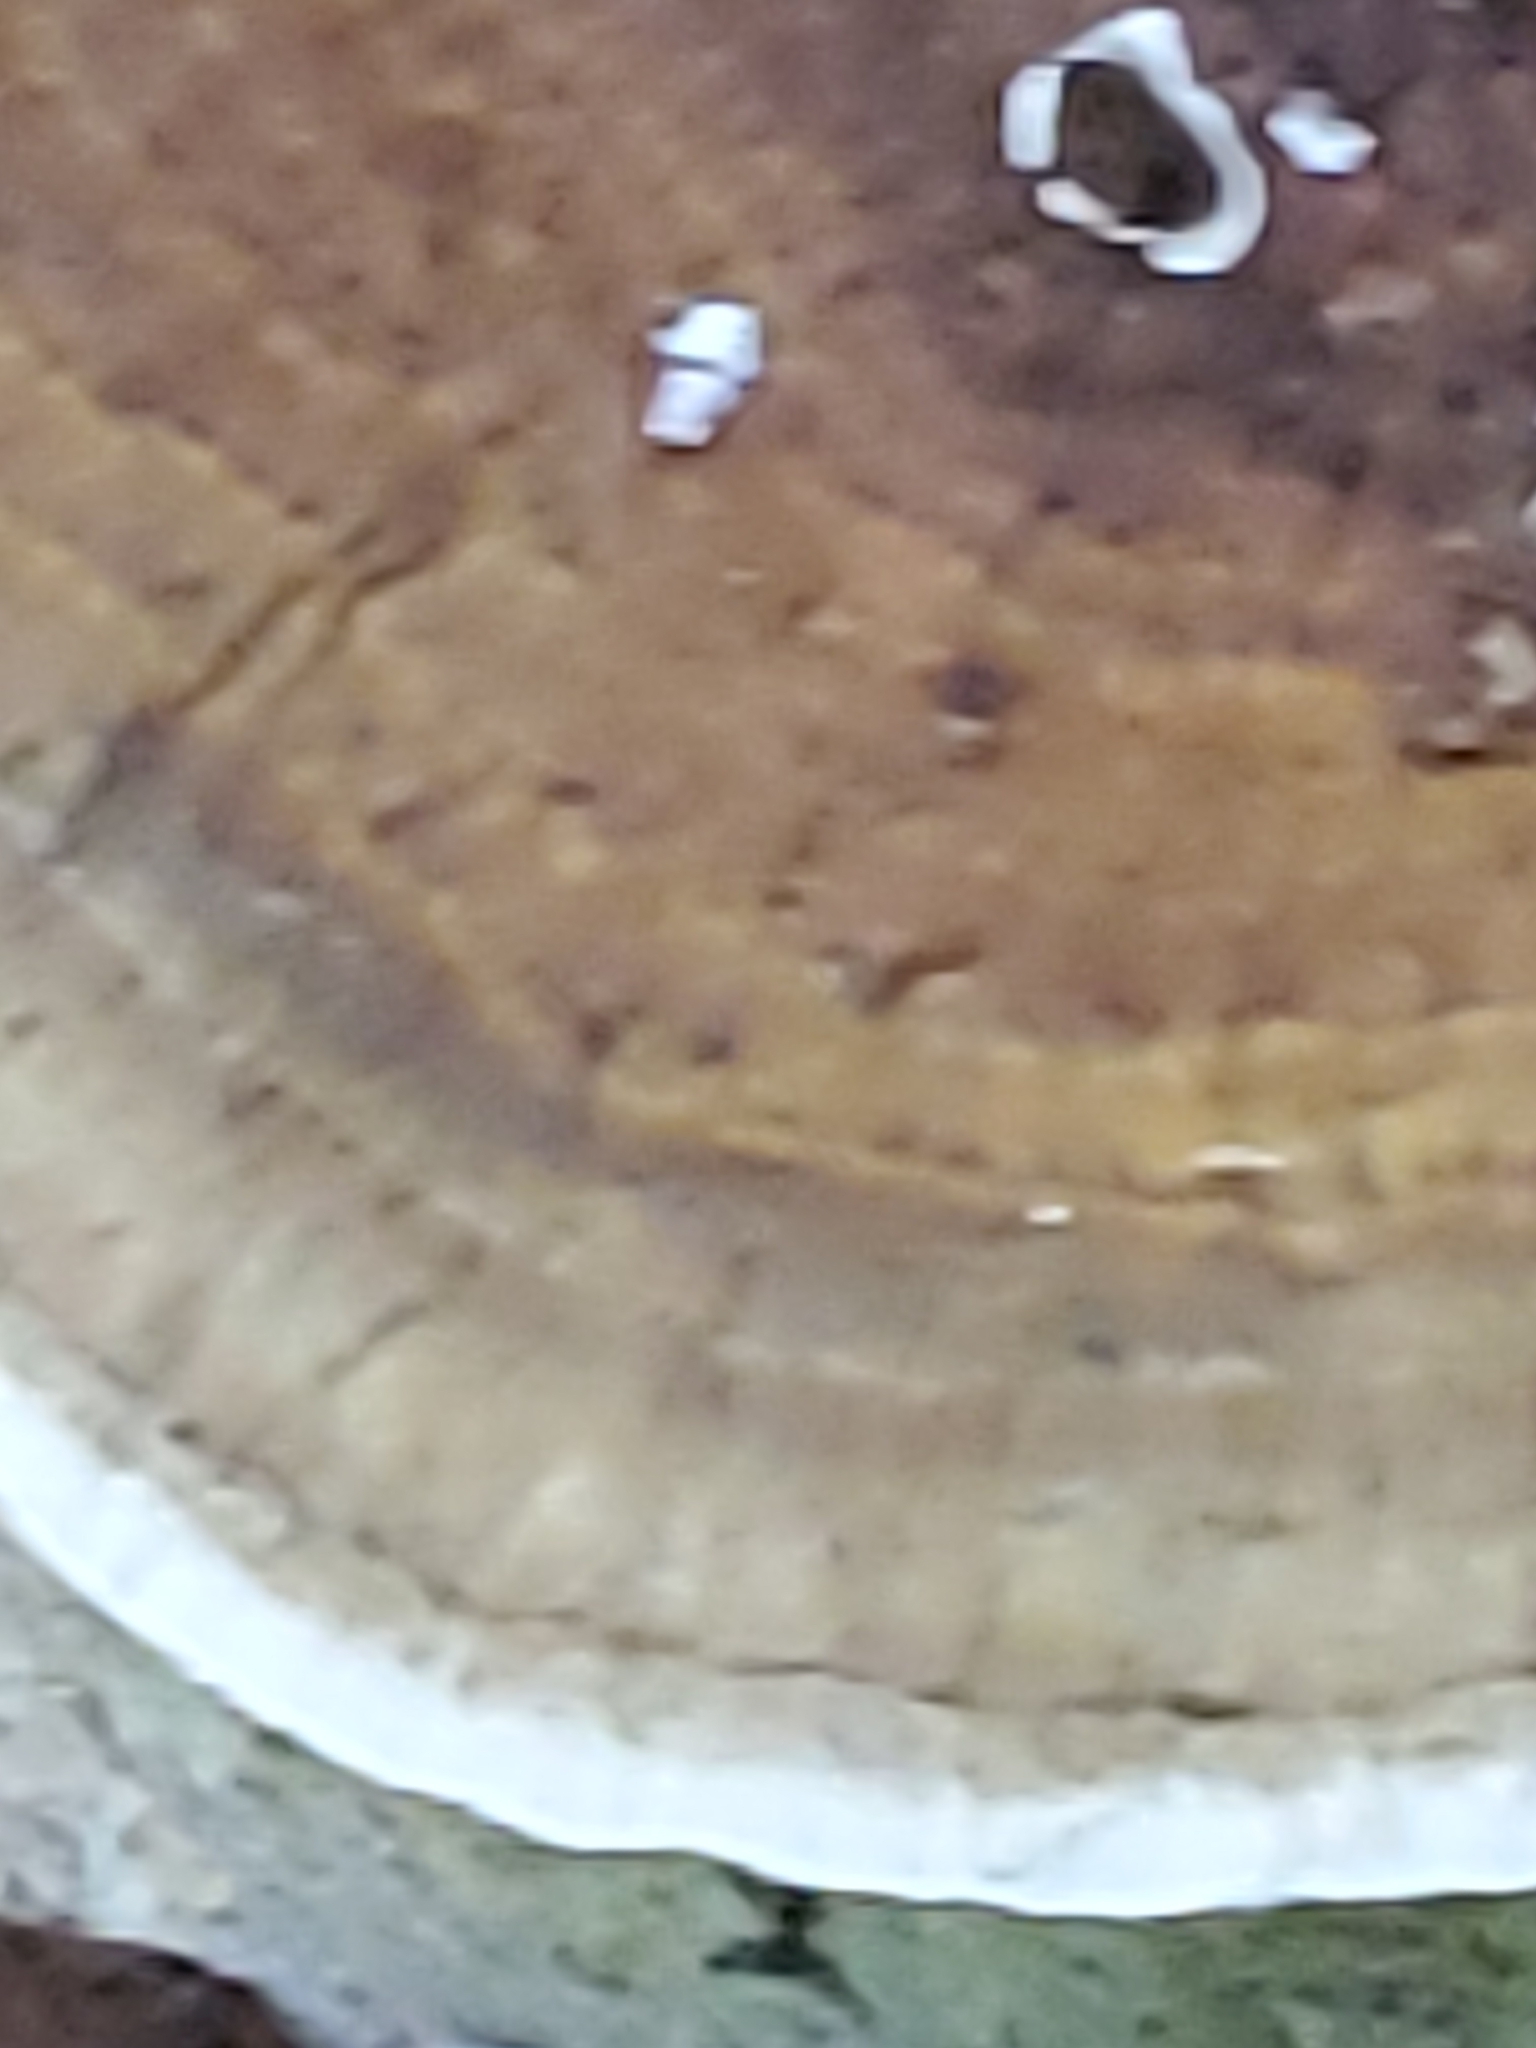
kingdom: Fungi
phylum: Basidiomycota
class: Agaricomycetes
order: Polyporales
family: Polyporaceae
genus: Daedaleopsis
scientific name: Daedaleopsis confragosa
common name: Blushing bracket
